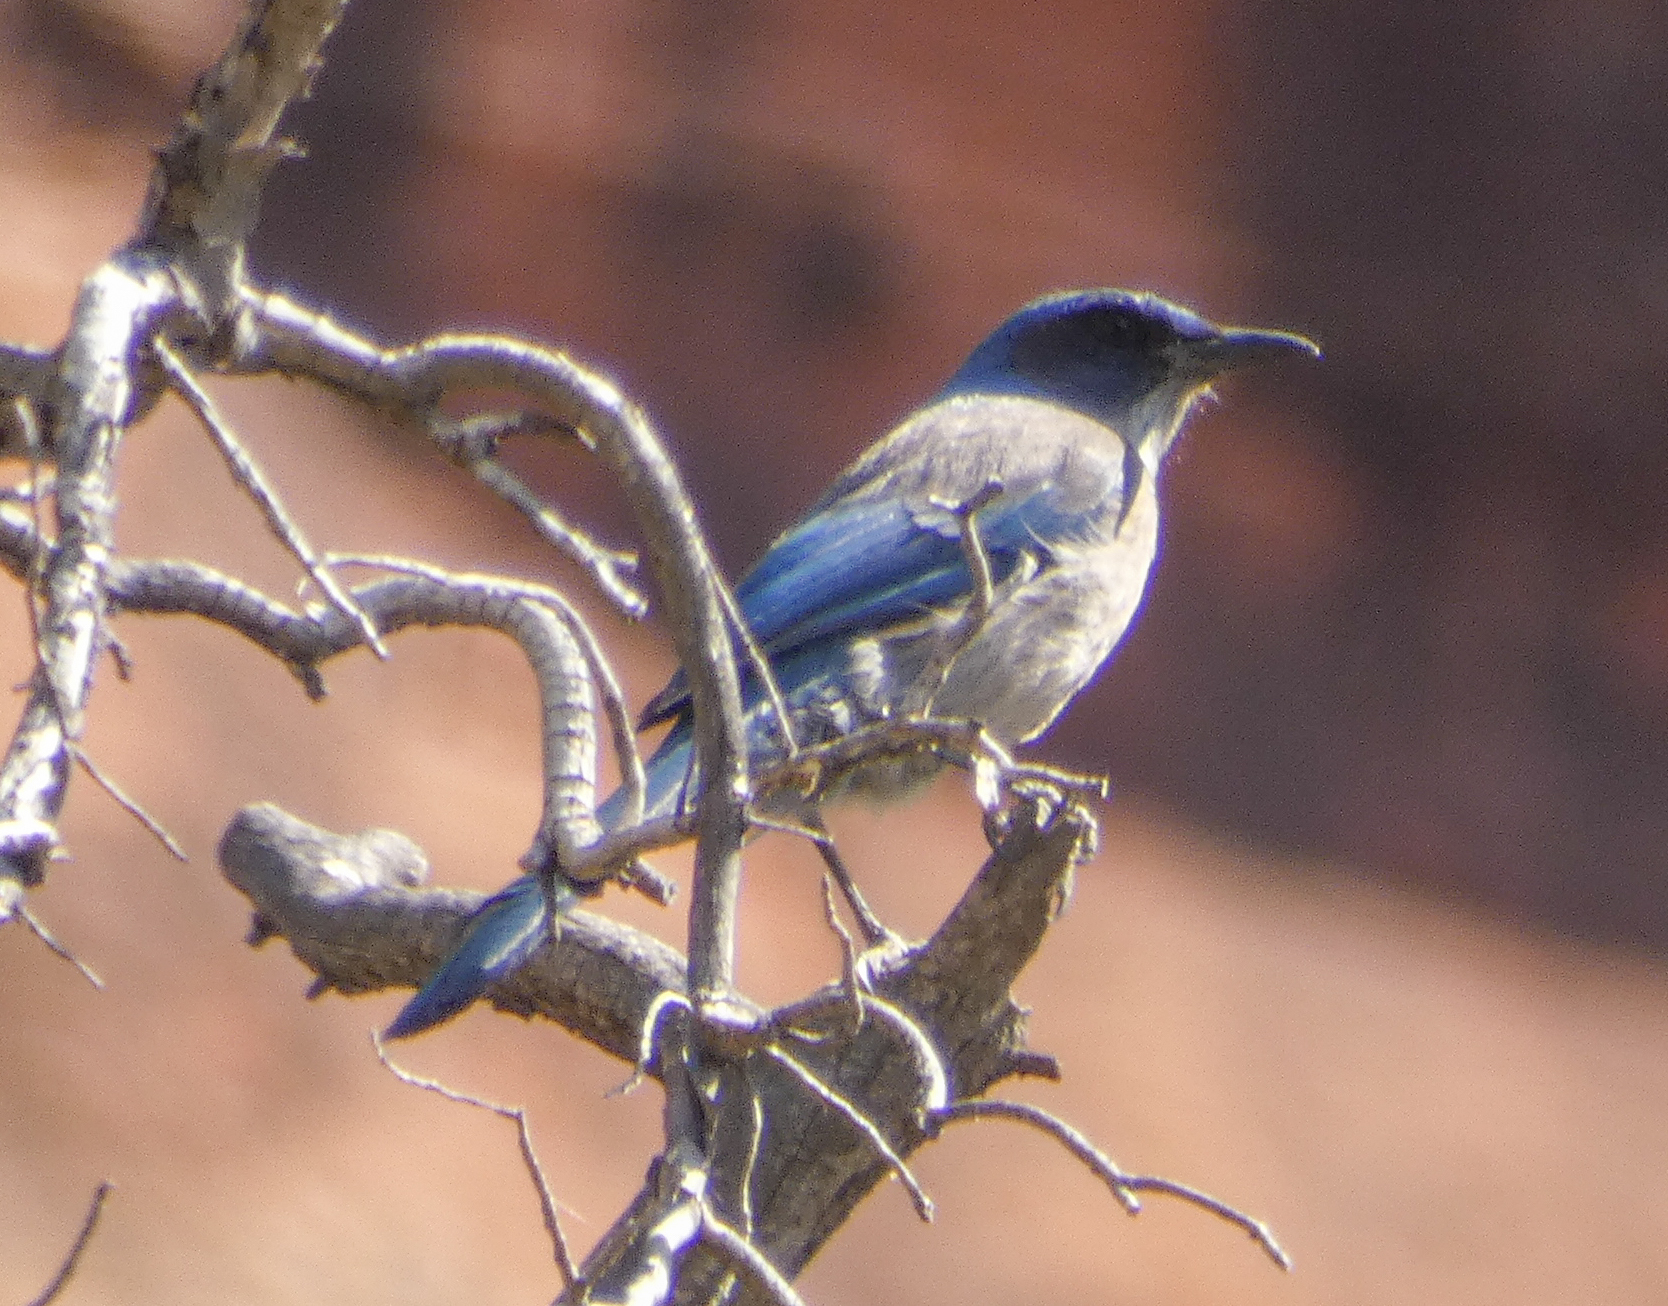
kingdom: Animalia
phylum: Chordata
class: Aves
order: Passeriformes
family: Corvidae
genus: Aphelocoma
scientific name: Aphelocoma woodhouseii
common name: Woodhouse's scrub-jay
